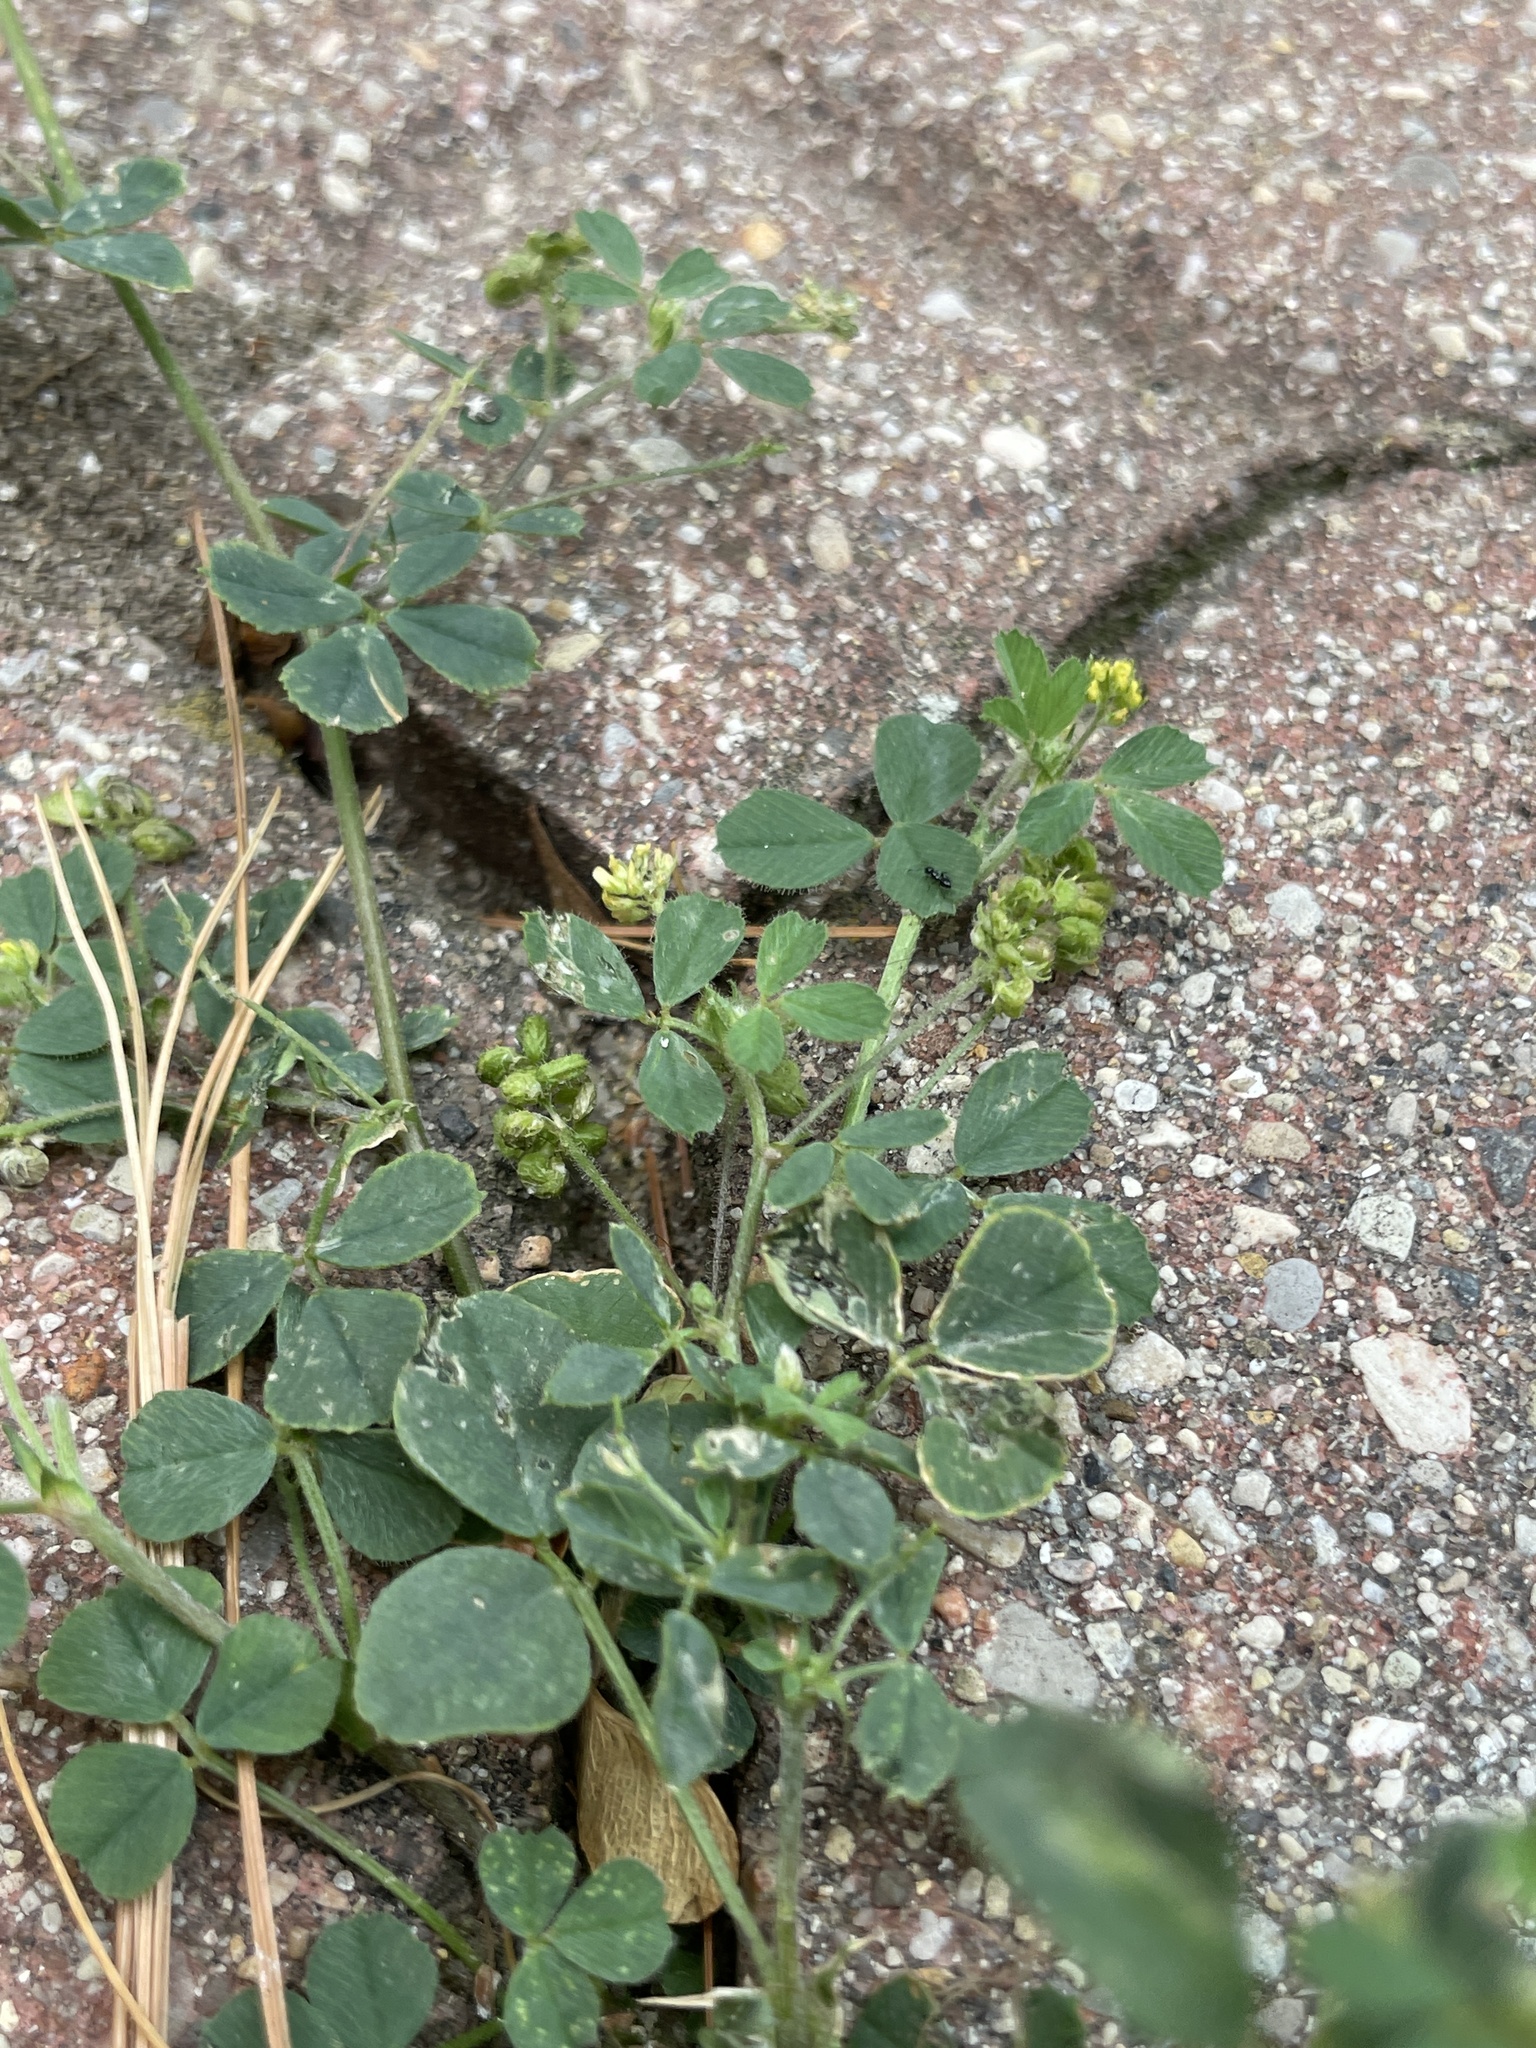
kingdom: Plantae
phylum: Tracheophyta
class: Magnoliopsida
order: Fabales
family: Fabaceae
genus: Medicago
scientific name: Medicago lupulina
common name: Black medick
